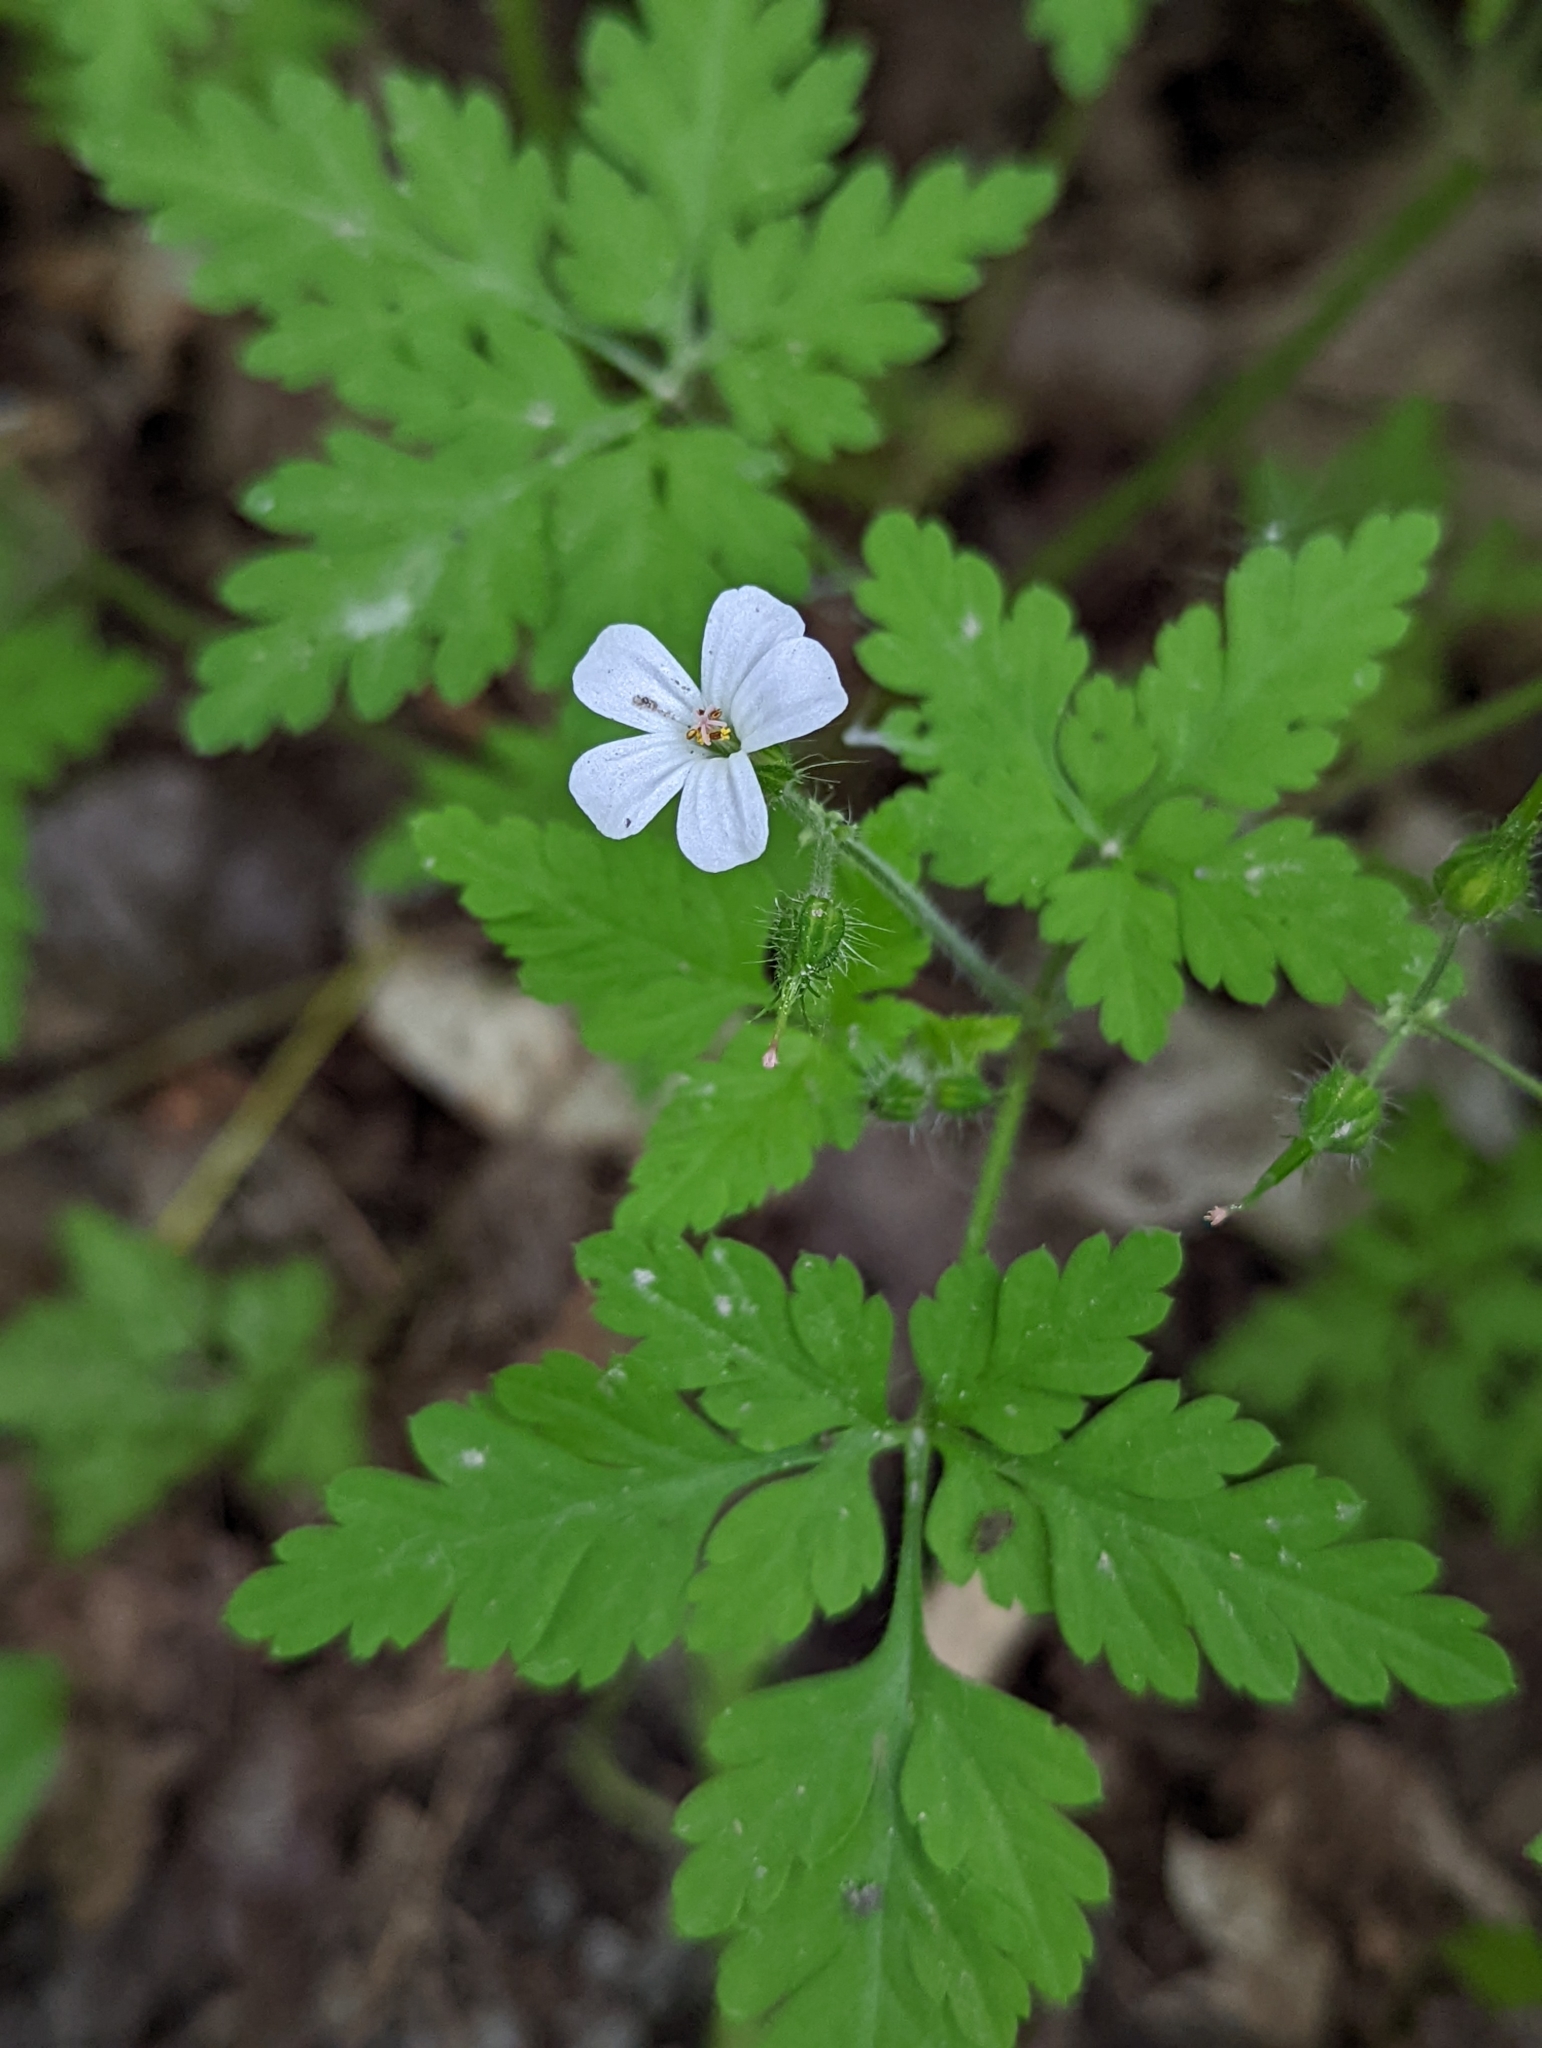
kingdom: Plantae
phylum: Tracheophyta
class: Magnoliopsida
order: Geraniales
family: Geraniaceae
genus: Geranium
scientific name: Geranium robertianum
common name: Herb-robert
